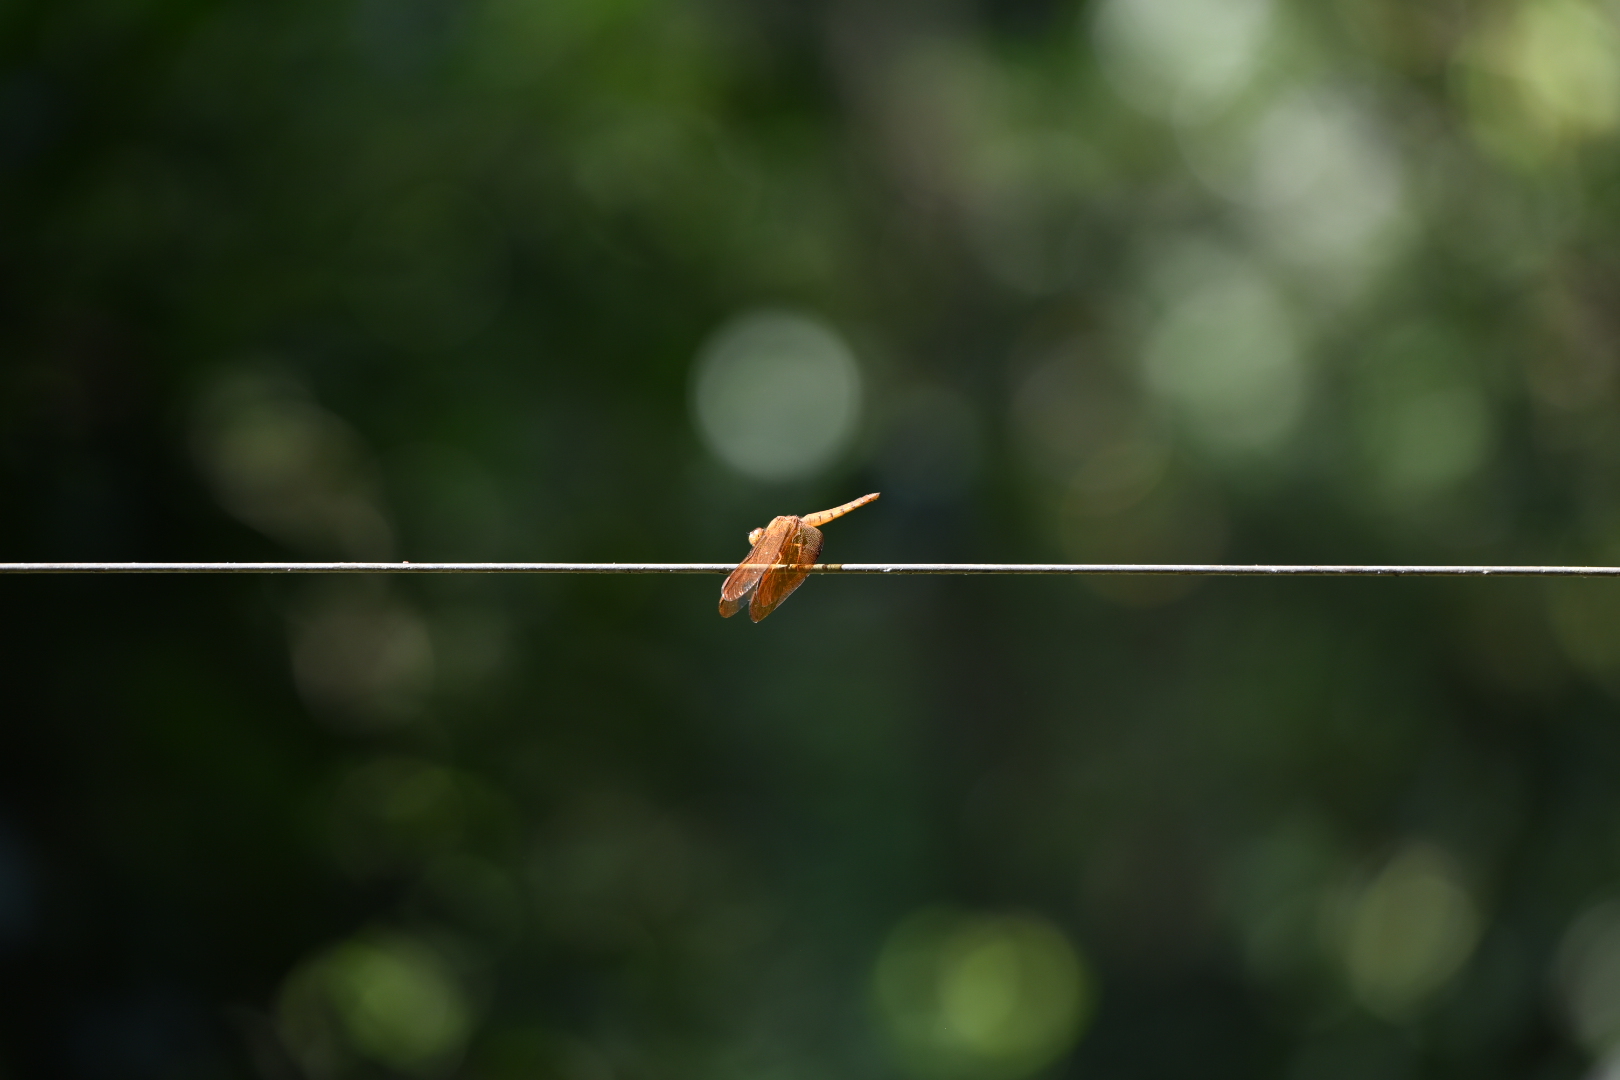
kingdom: Animalia
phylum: Arthropoda
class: Insecta
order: Odonata
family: Libellulidae
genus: Neurothemis
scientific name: Neurothemis fulvia
